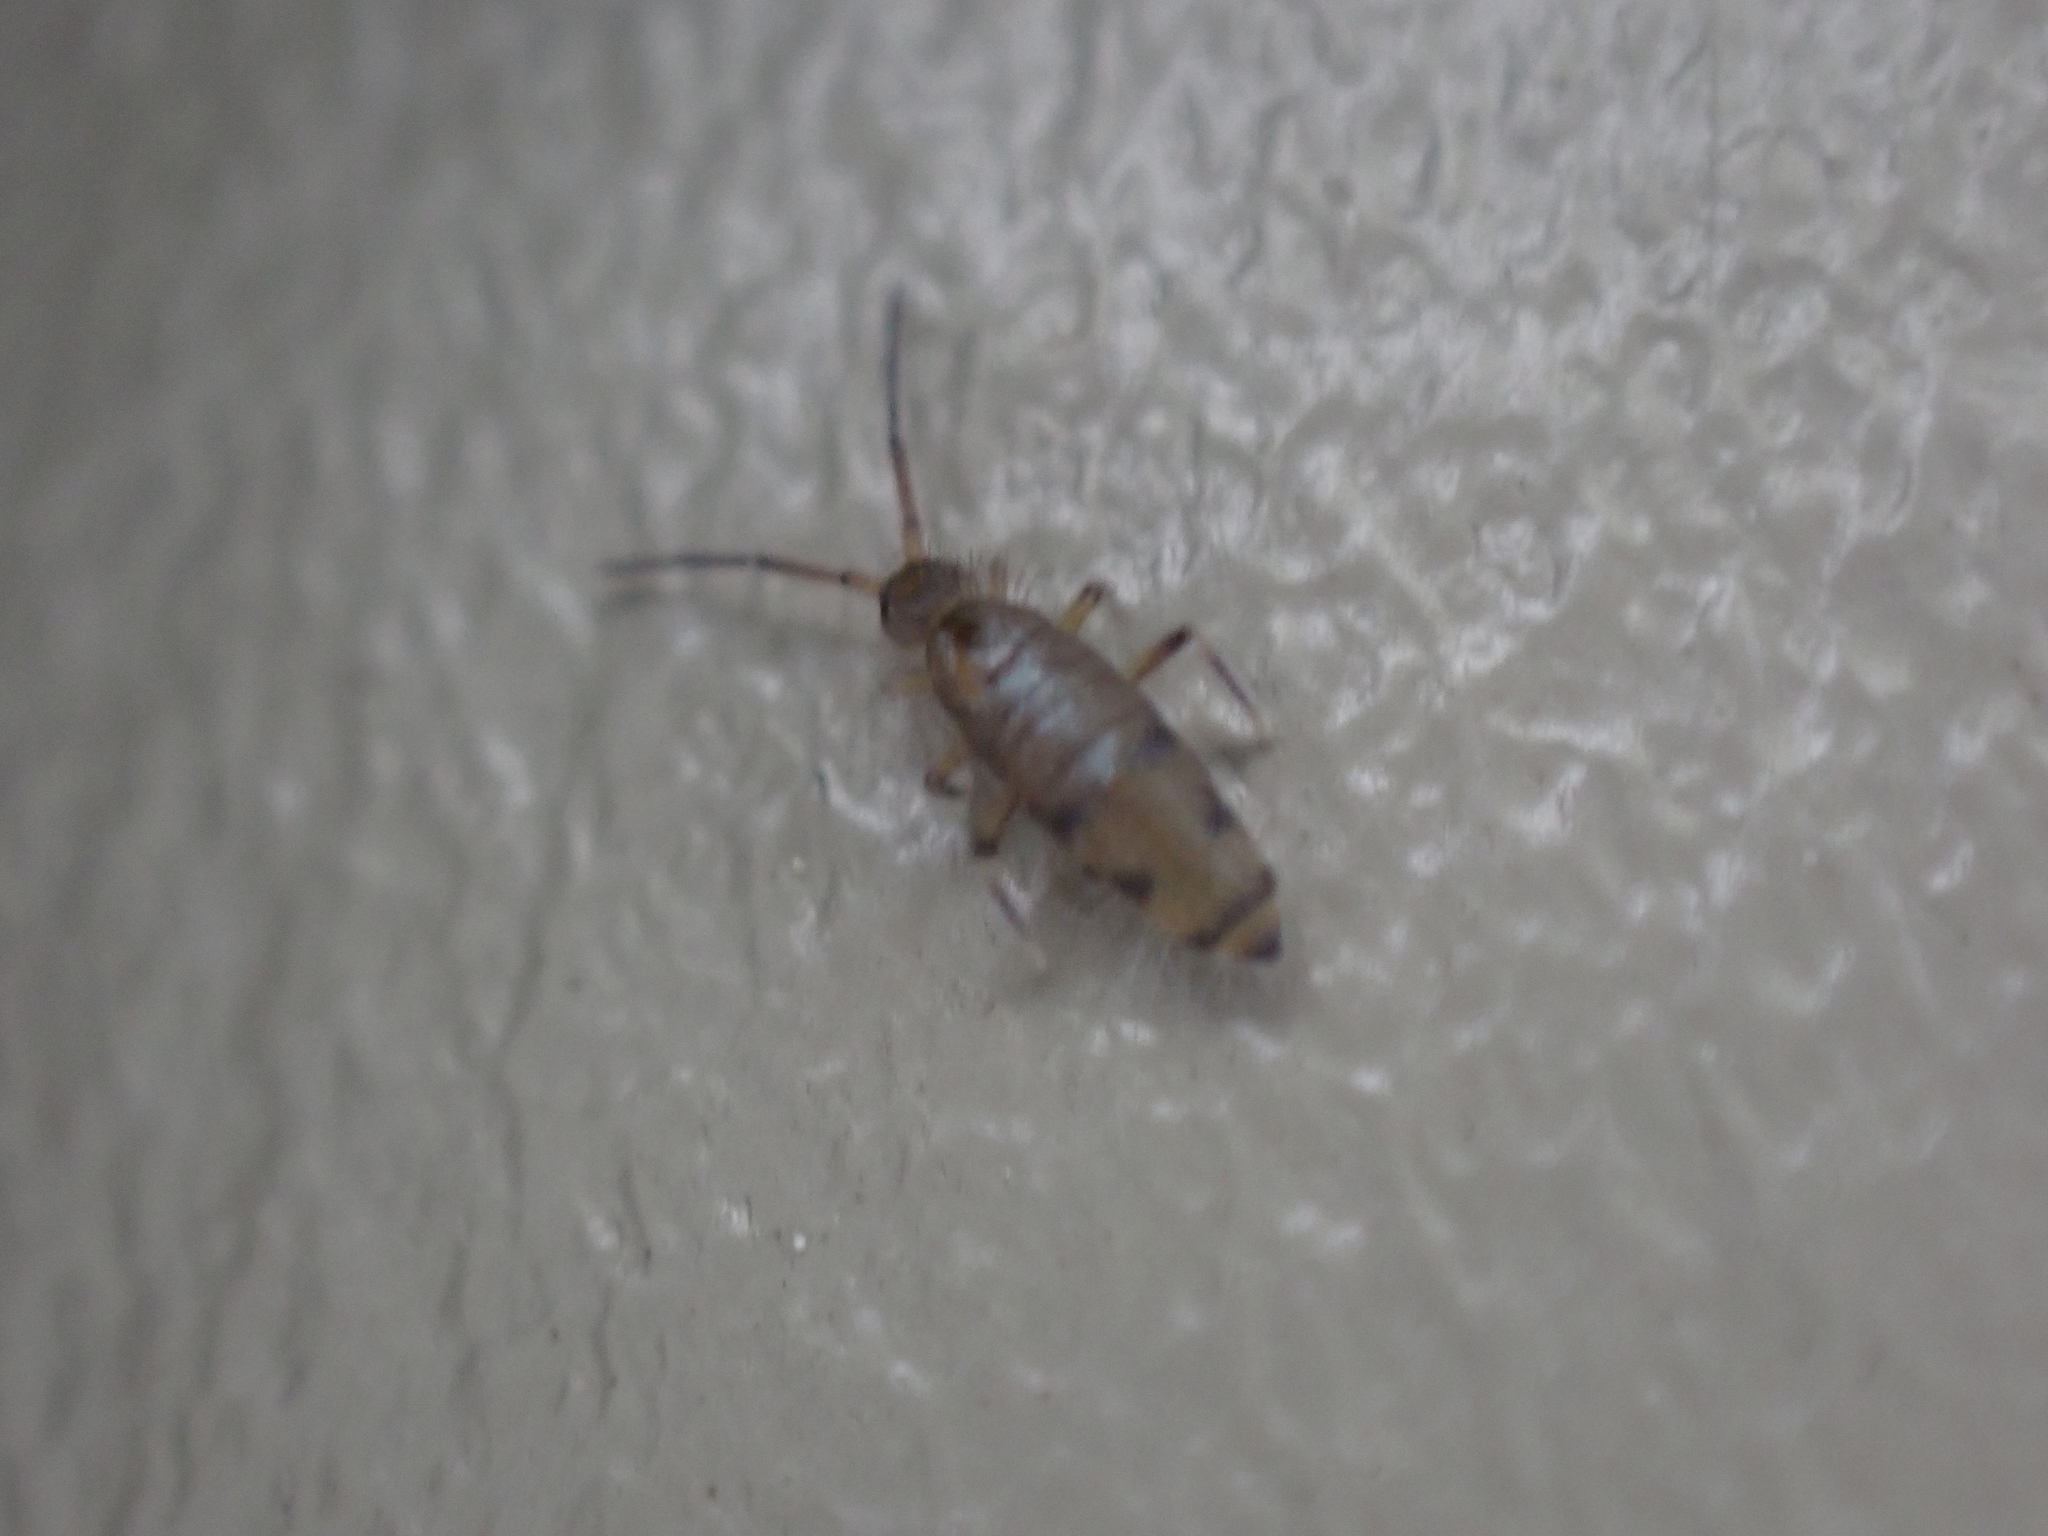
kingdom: Animalia
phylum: Arthropoda
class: Collembola
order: Entomobryomorpha
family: Entomobryidae
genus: Willowsia
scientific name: Willowsia nigromaculata
